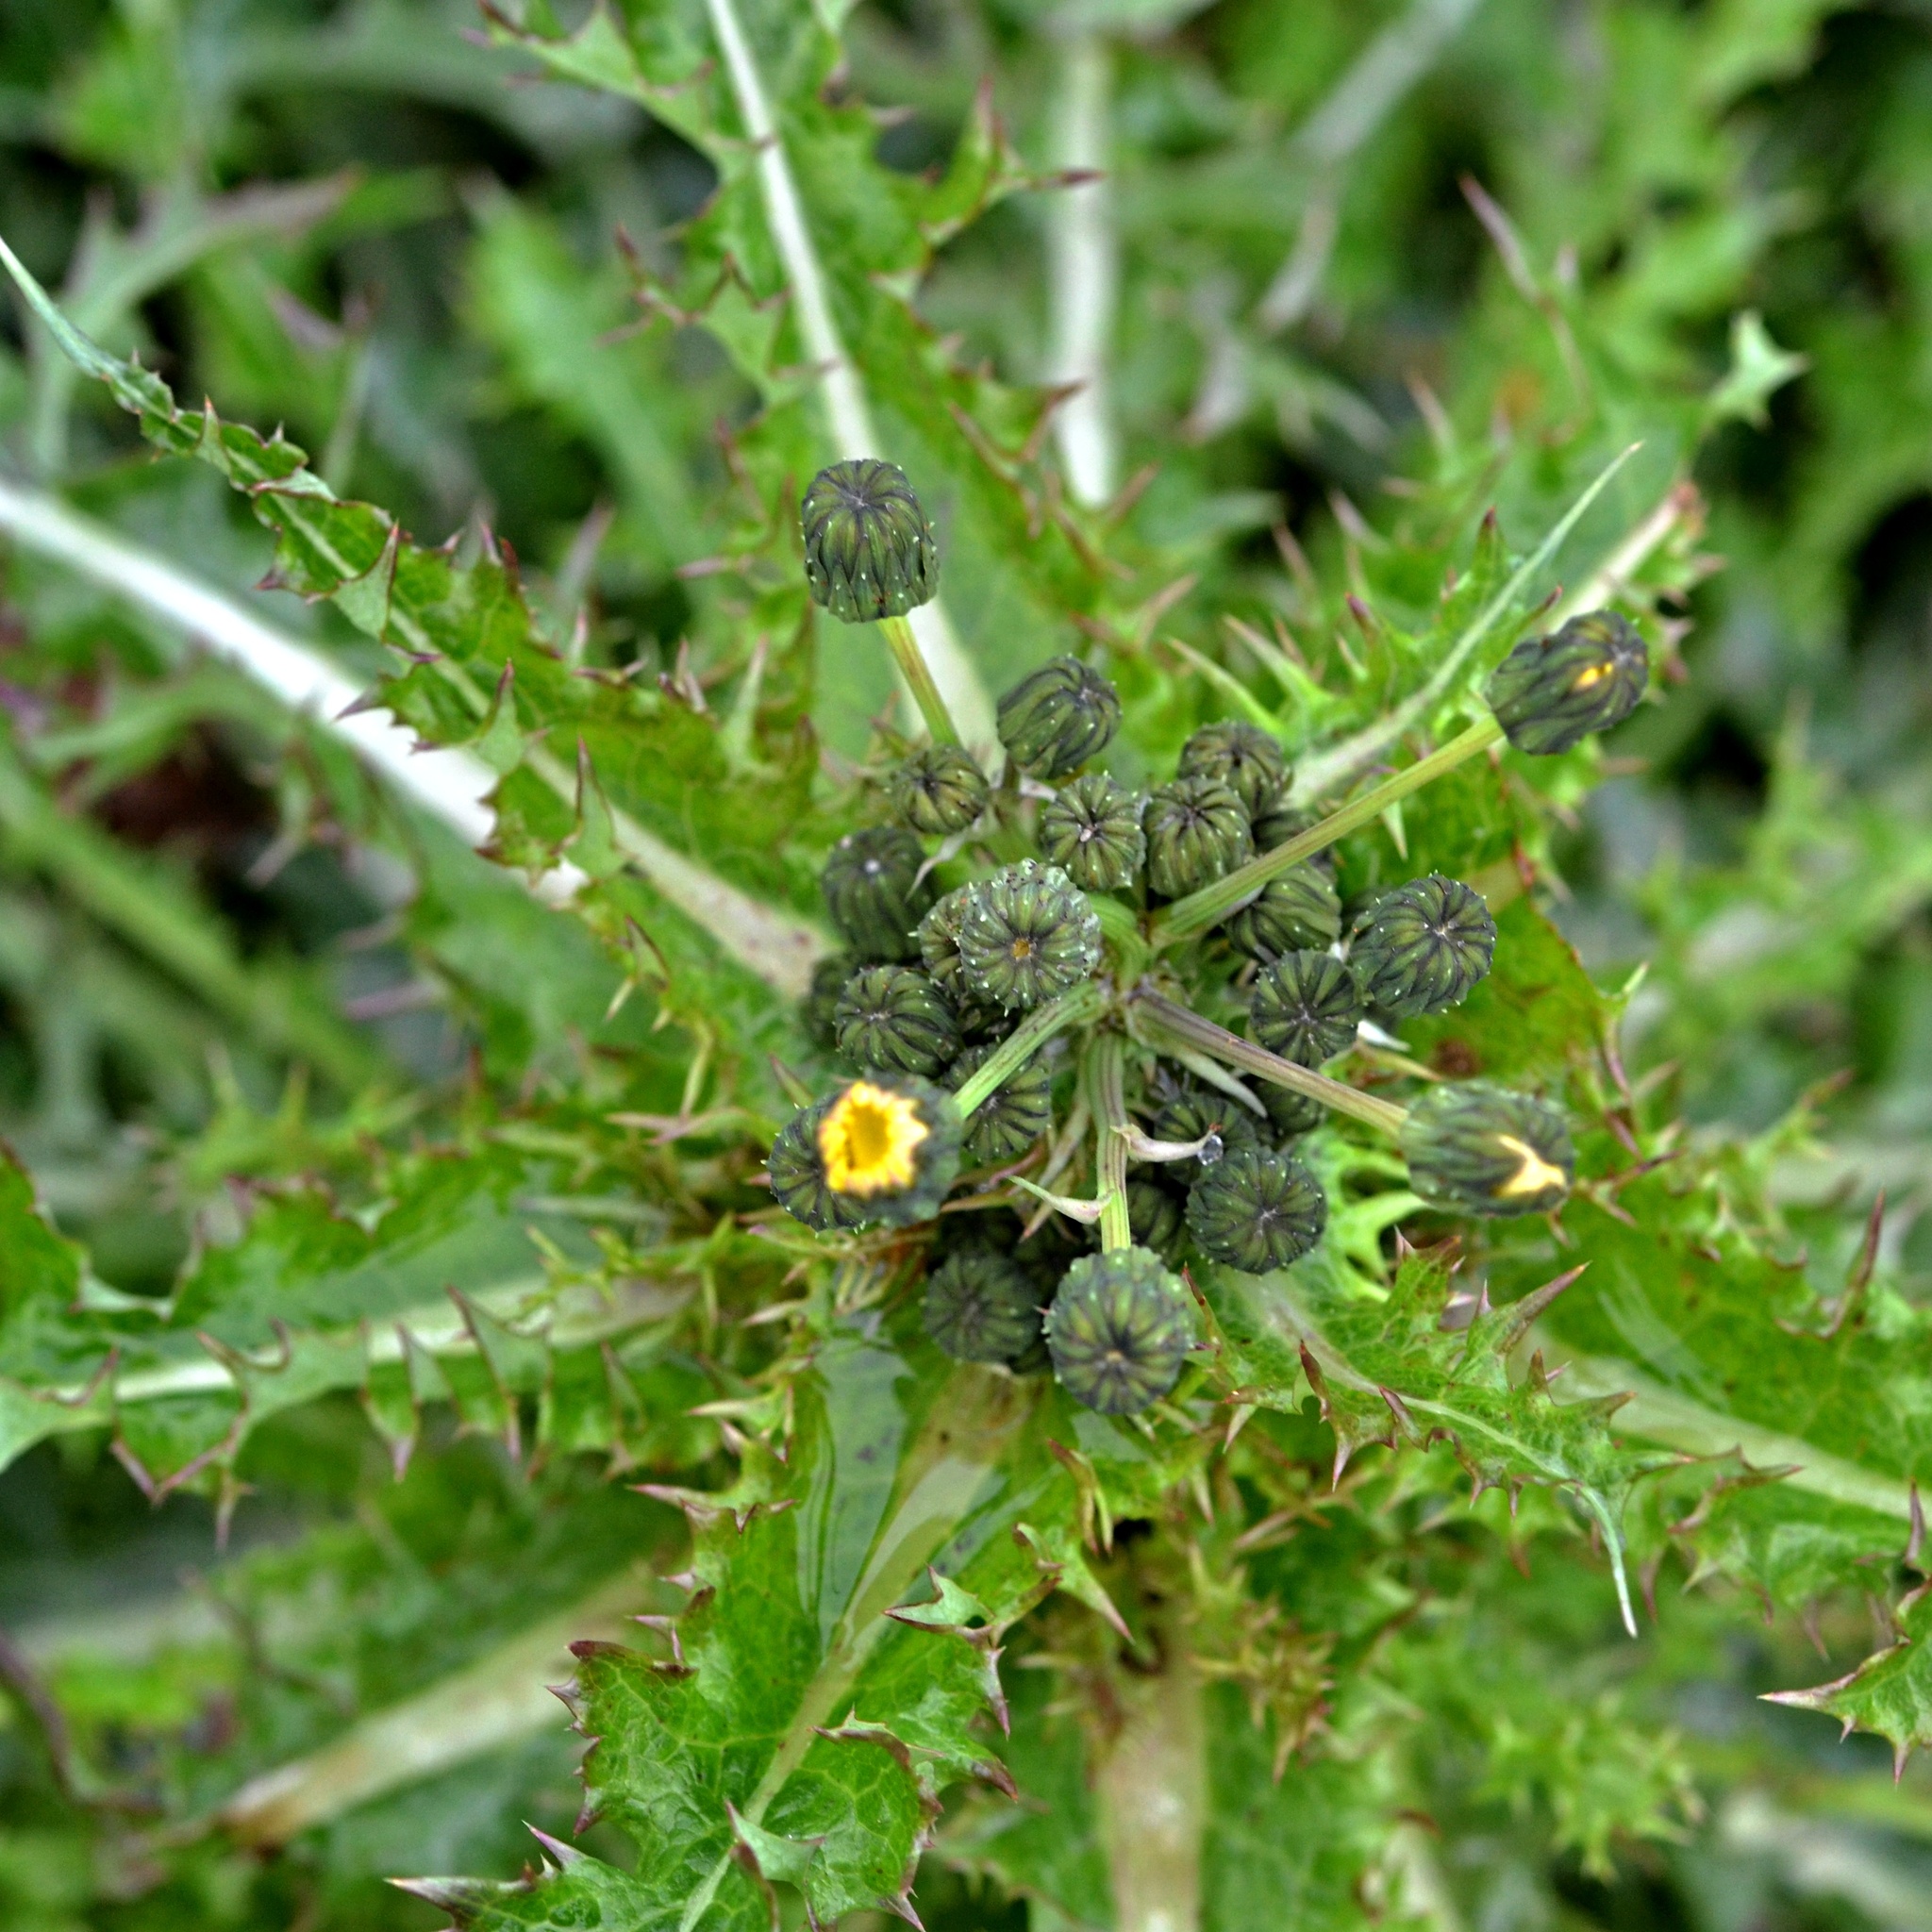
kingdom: Plantae
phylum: Tracheophyta
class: Magnoliopsida
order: Asterales
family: Asteraceae
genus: Sonchus
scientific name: Sonchus asper
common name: Prickly sow-thistle
